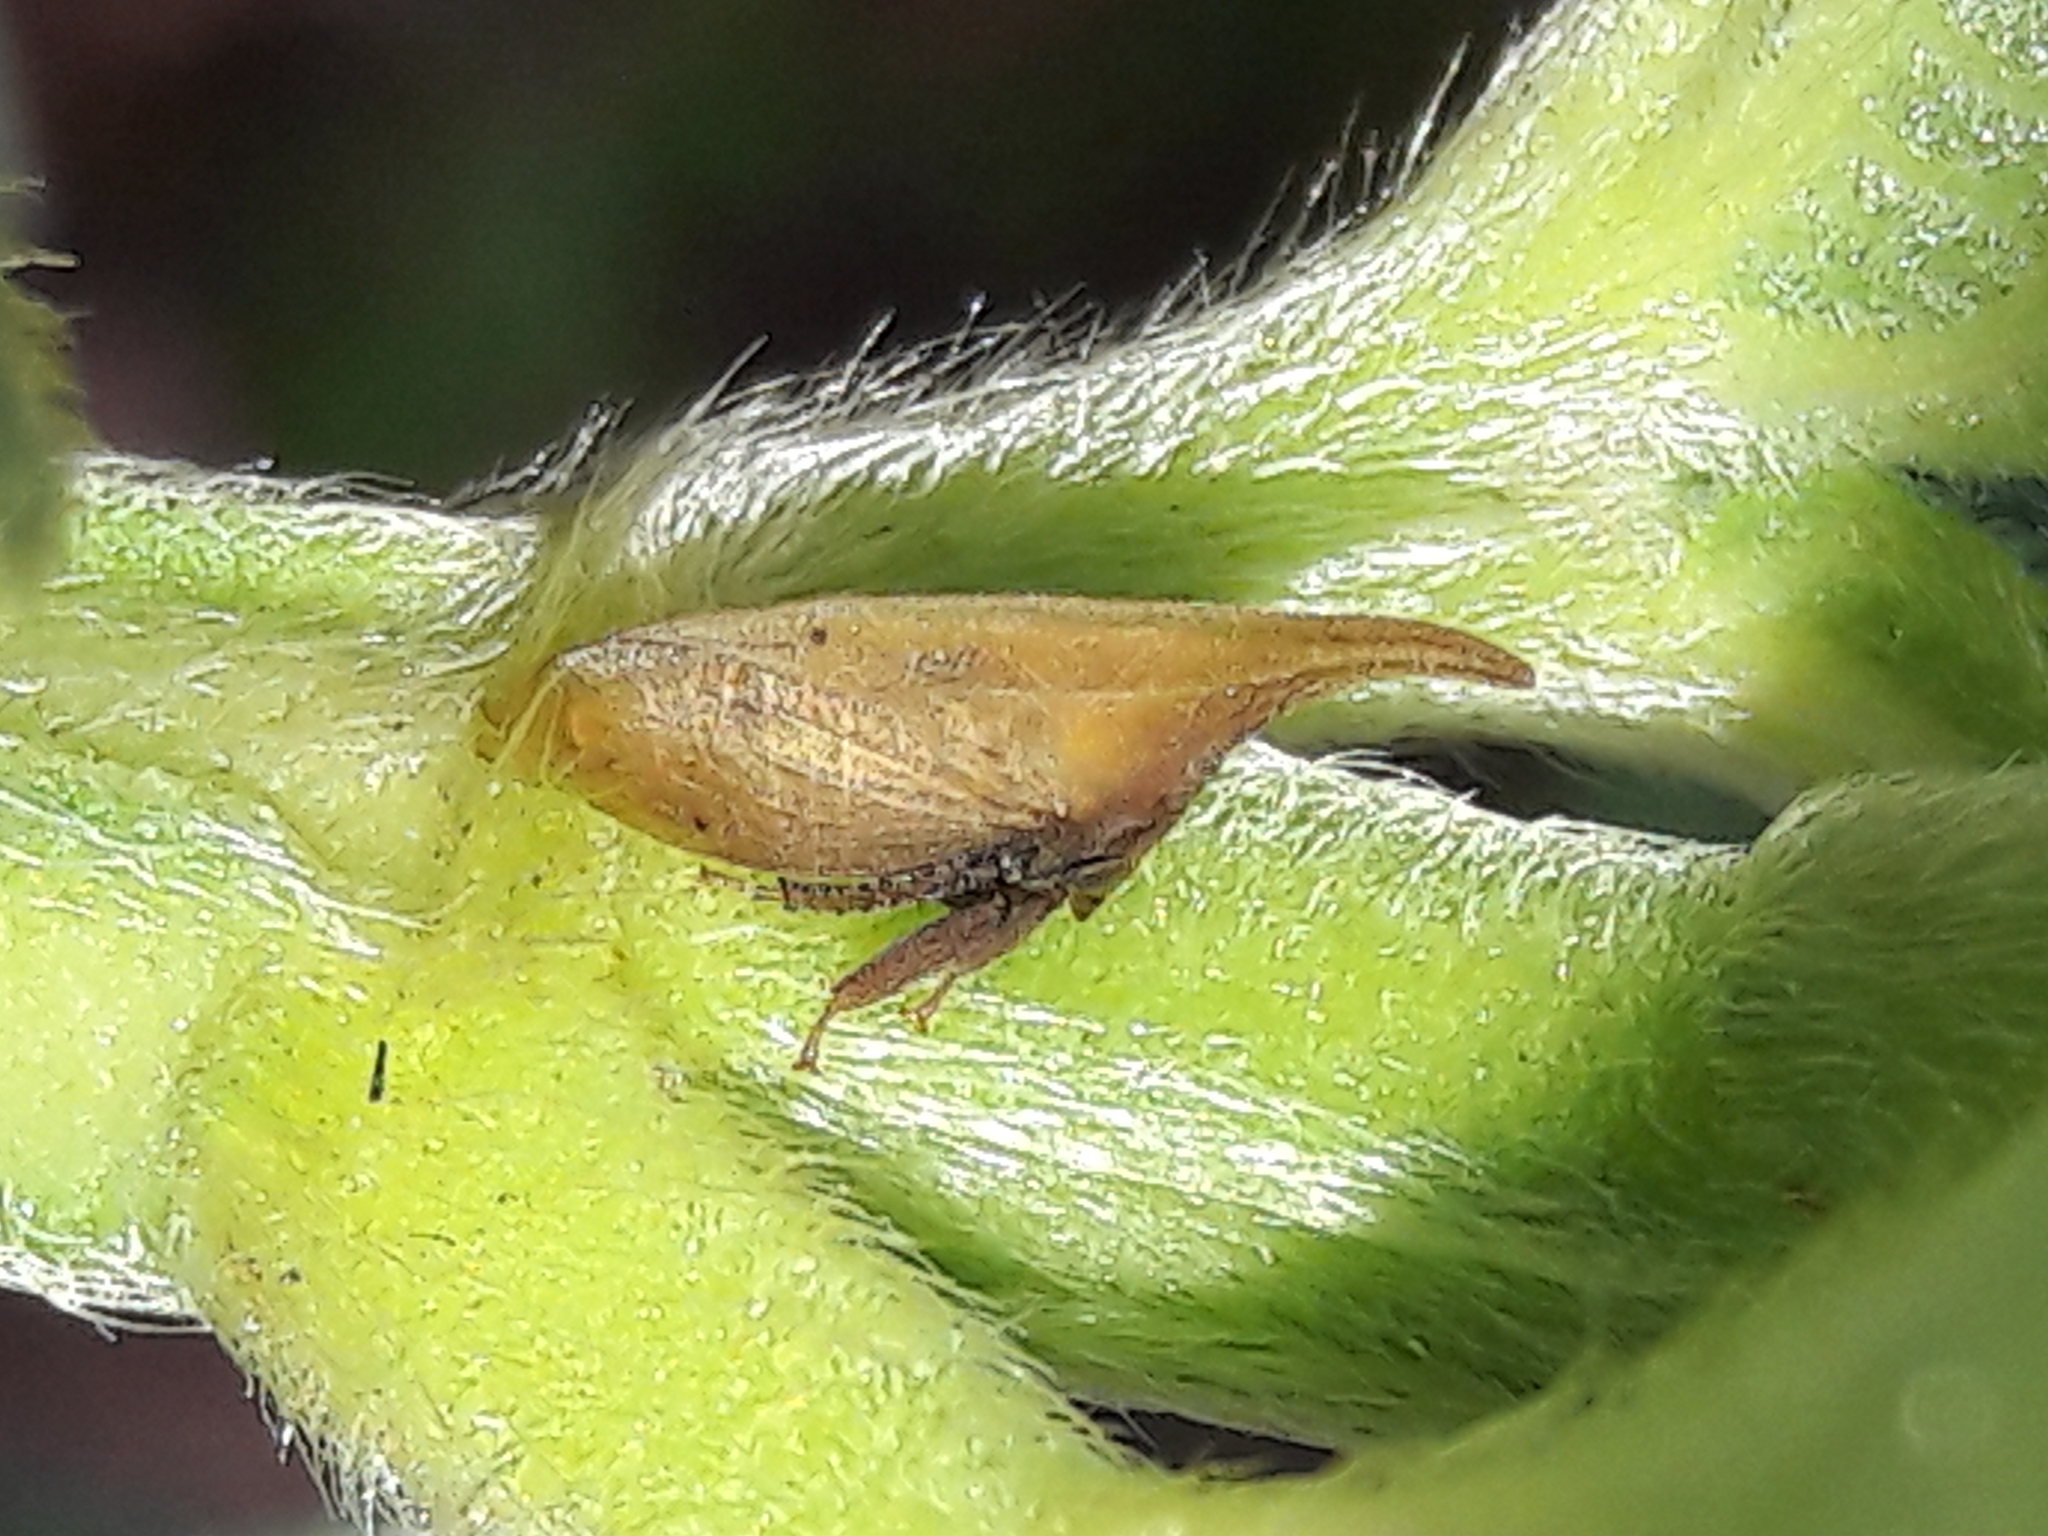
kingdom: Animalia
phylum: Arthropoda
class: Insecta
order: Hemiptera
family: Membracidae
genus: Enchenopa
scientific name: Enchenopa squamigera
